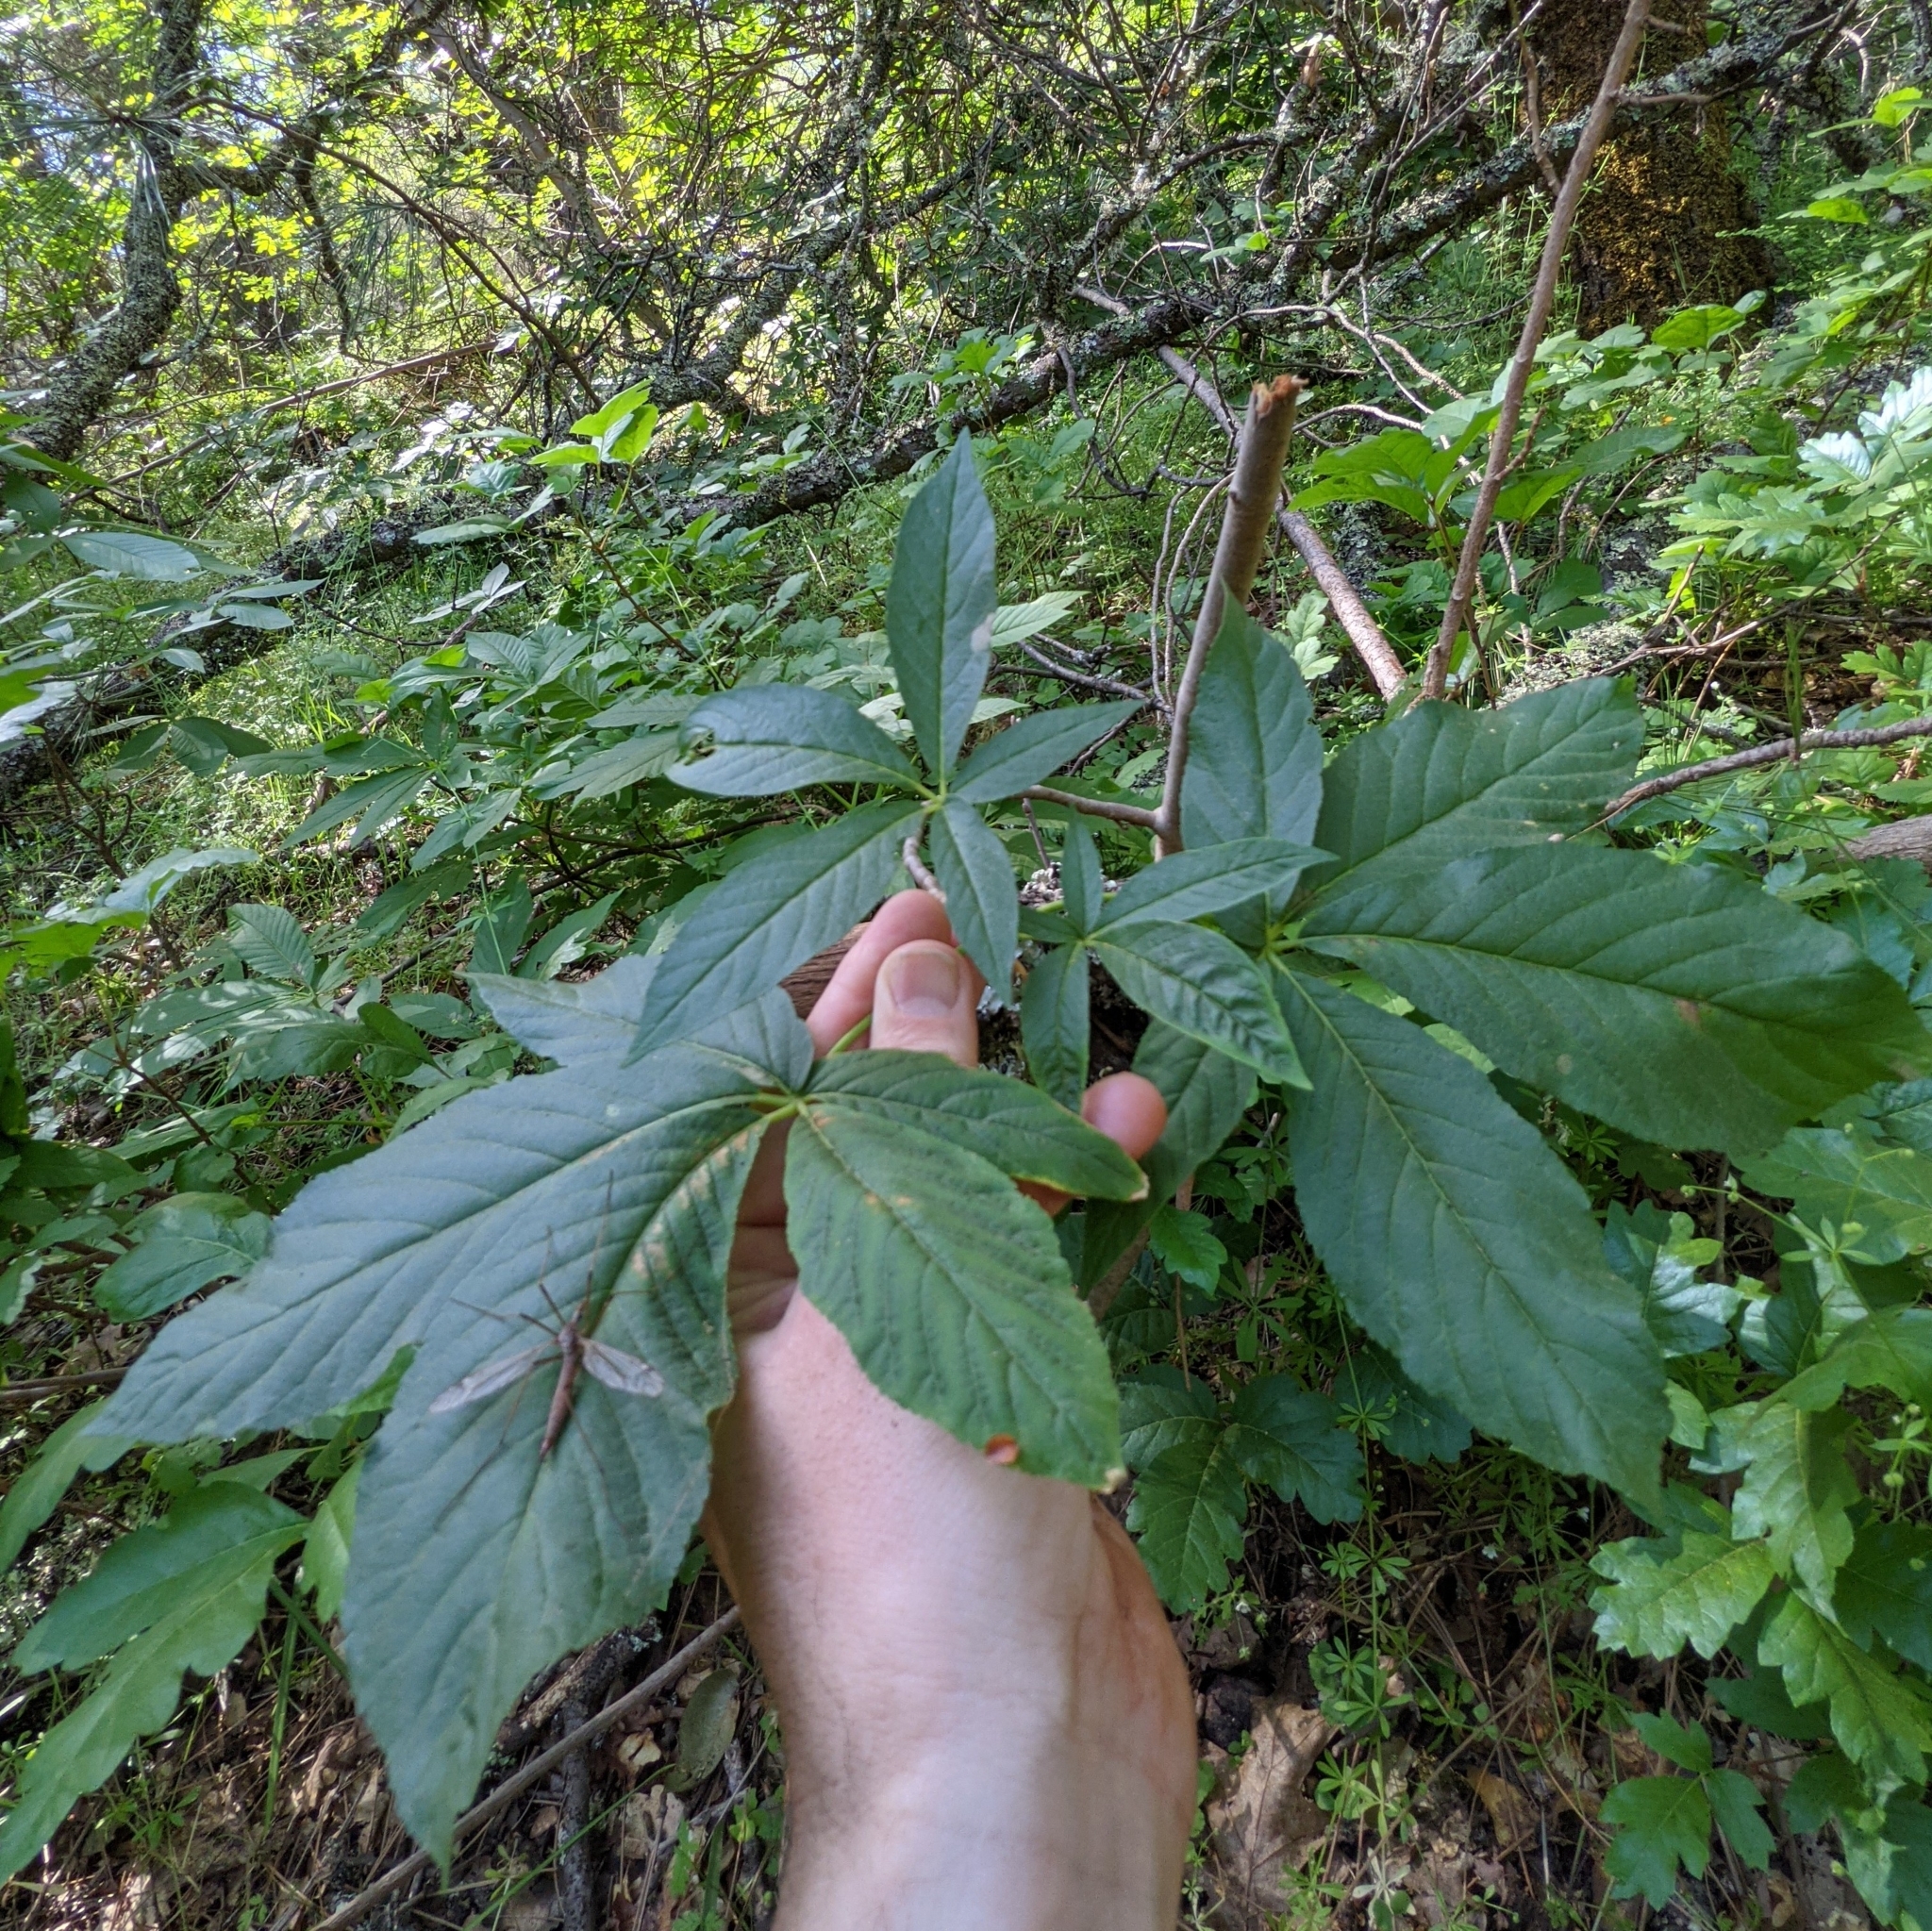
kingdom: Plantae
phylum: Tracheophyta
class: Magnoliopsida
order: Sapindales
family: Sapindaceae
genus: Aesculus
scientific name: Aesculus californica
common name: California buckeye
